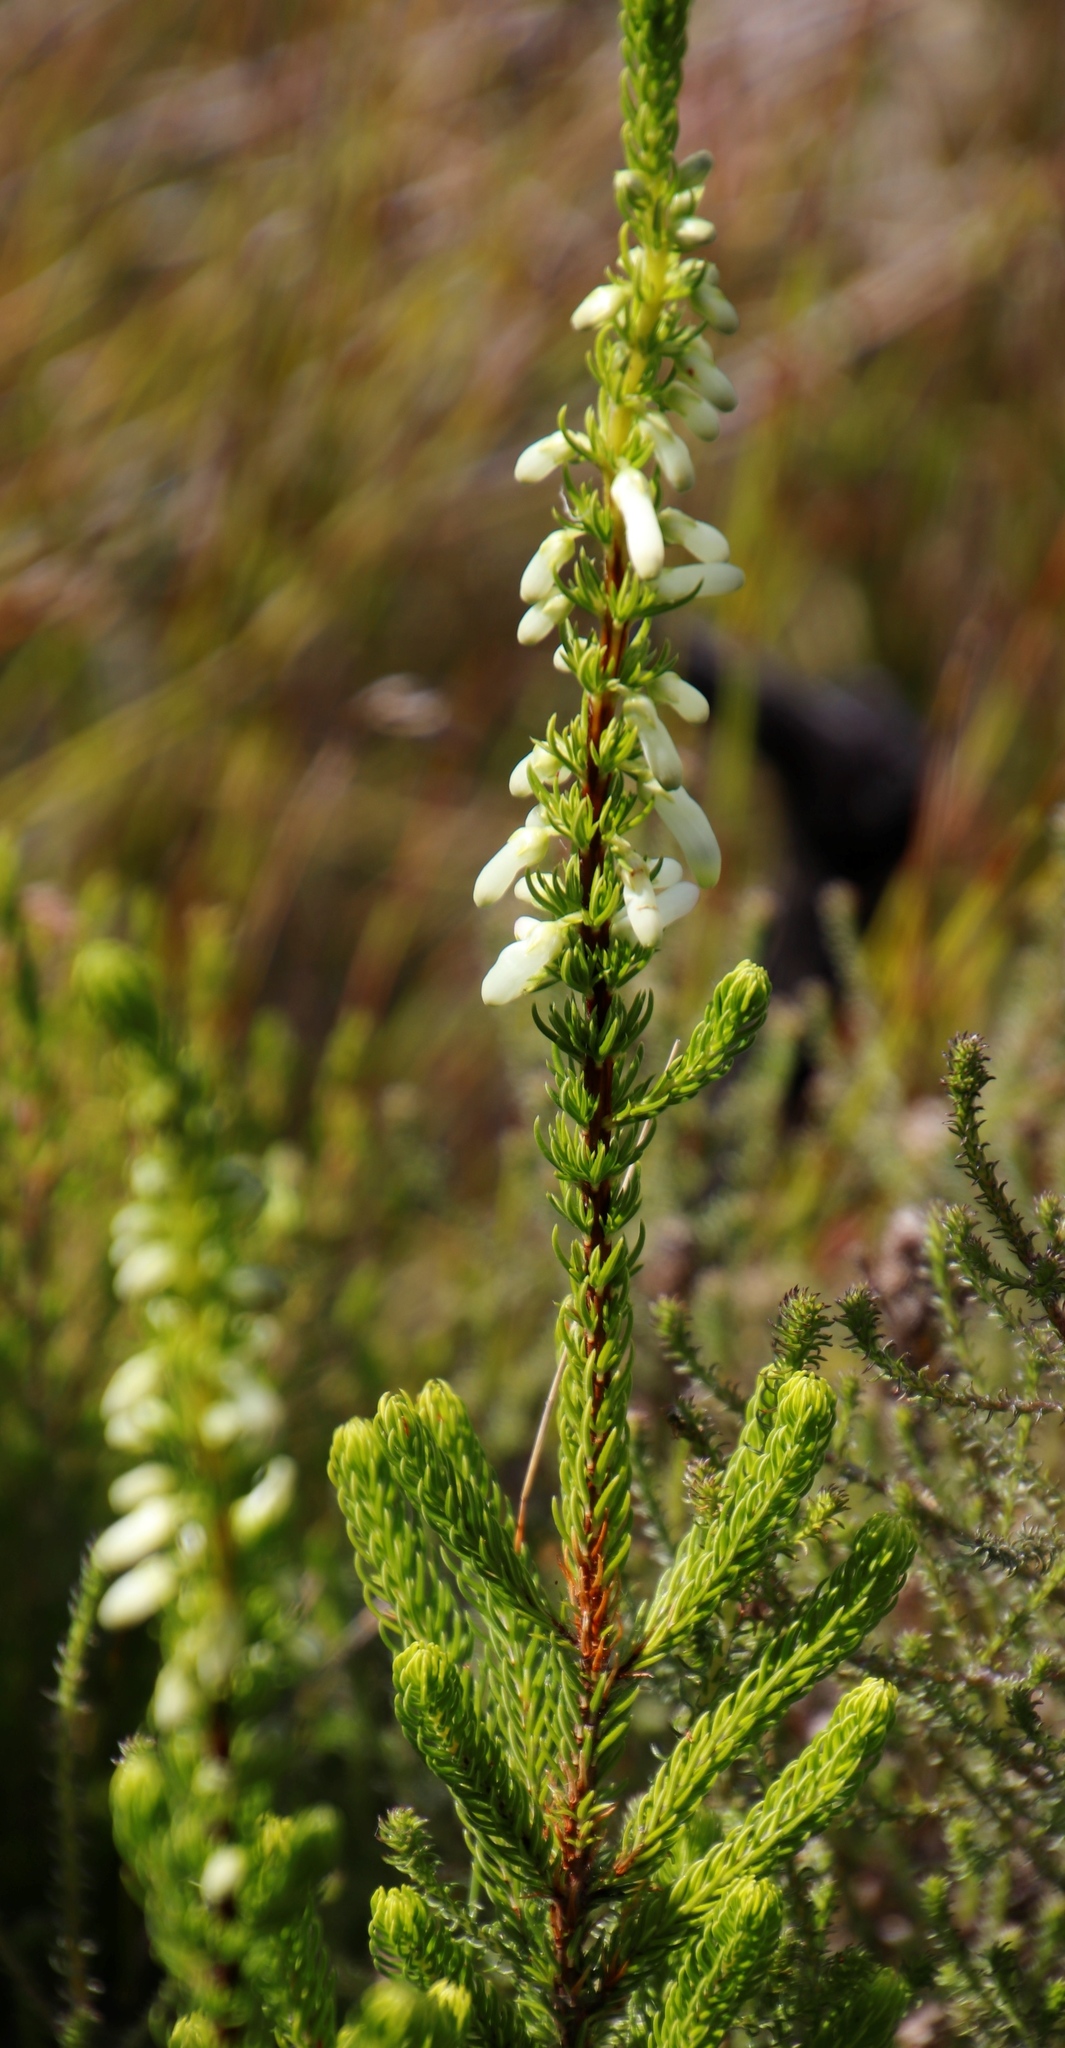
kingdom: Plantae
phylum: Tracheophyta
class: Magnoliopsida
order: Ericales
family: Ericaceae
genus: Erica
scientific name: Erica mammosa
